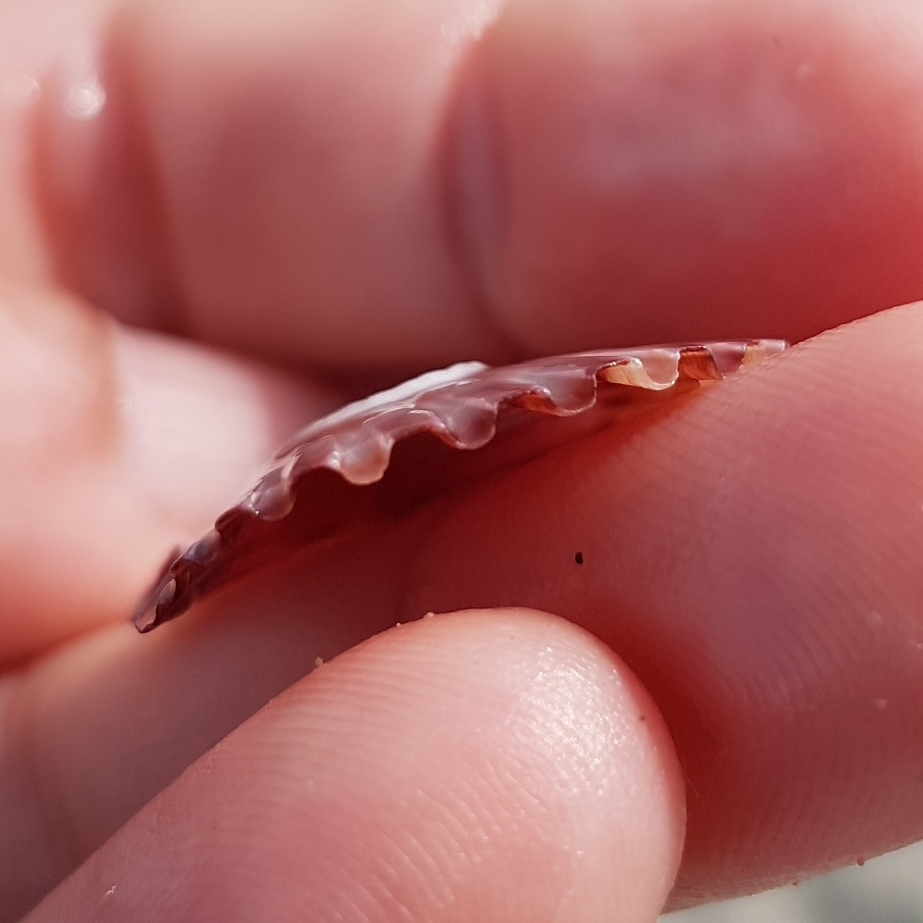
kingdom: Animalia
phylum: Mollusca
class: Bivalvia
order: Pectinida
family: Pectinidae
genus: Pecten
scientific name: Pecten jacobaeus
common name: St.james's scallop
